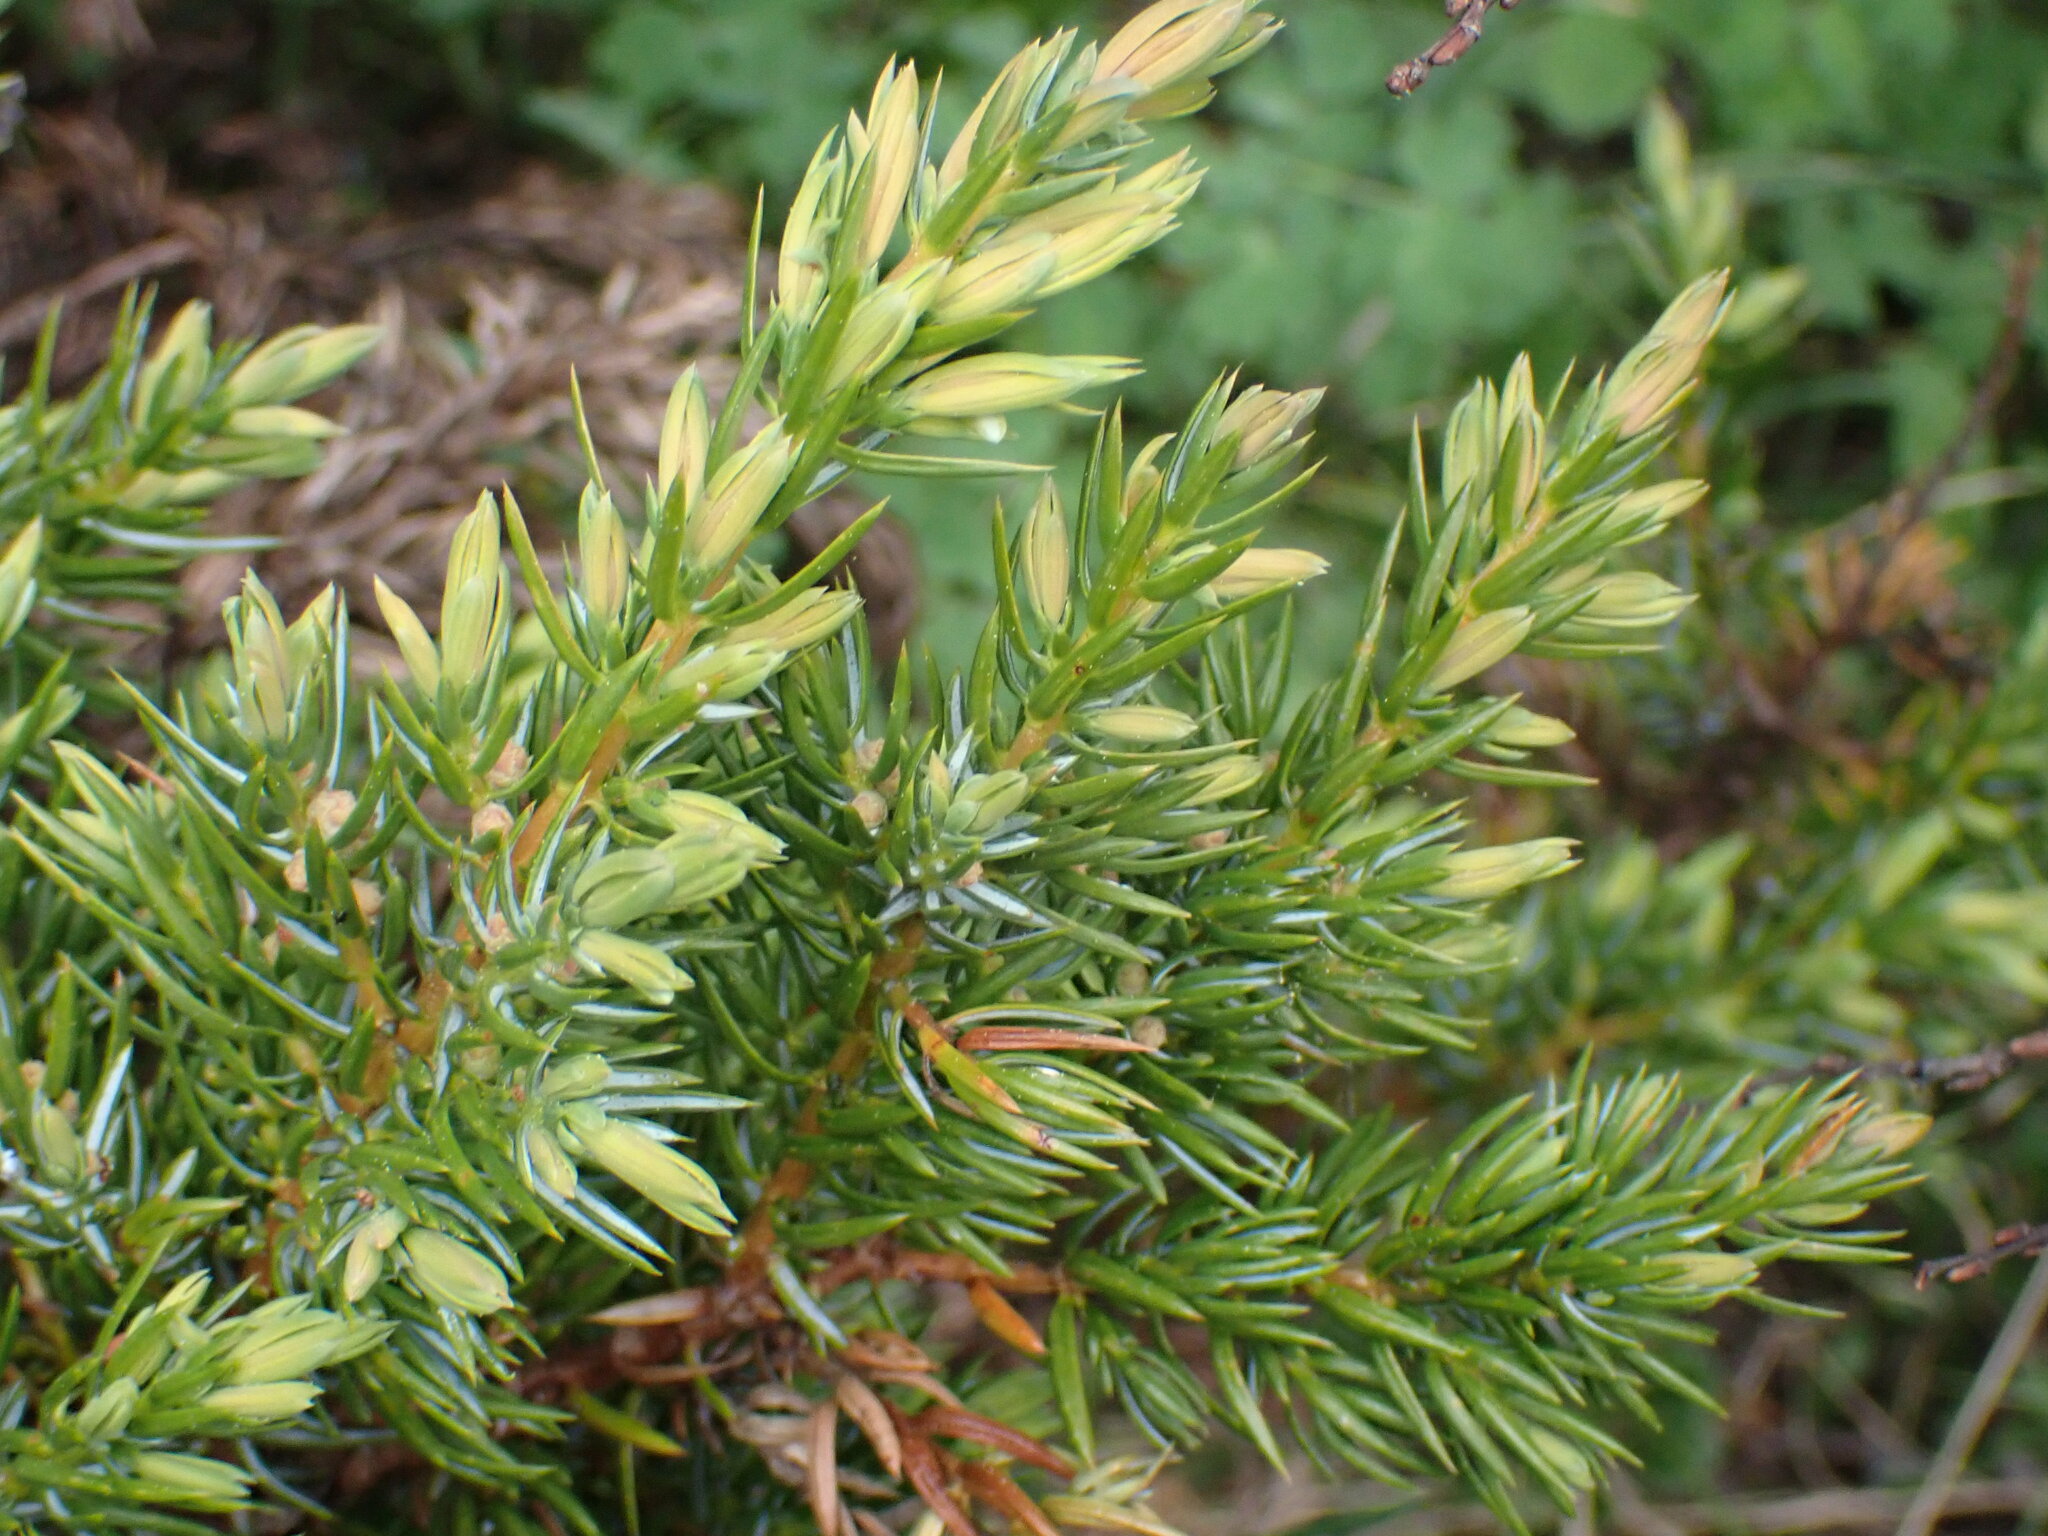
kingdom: Plantae
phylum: Tracheophyta
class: Pinopsida
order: Pinales
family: Cupressaceae
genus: Juniperus
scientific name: Juniperus communis
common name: Common juniper
